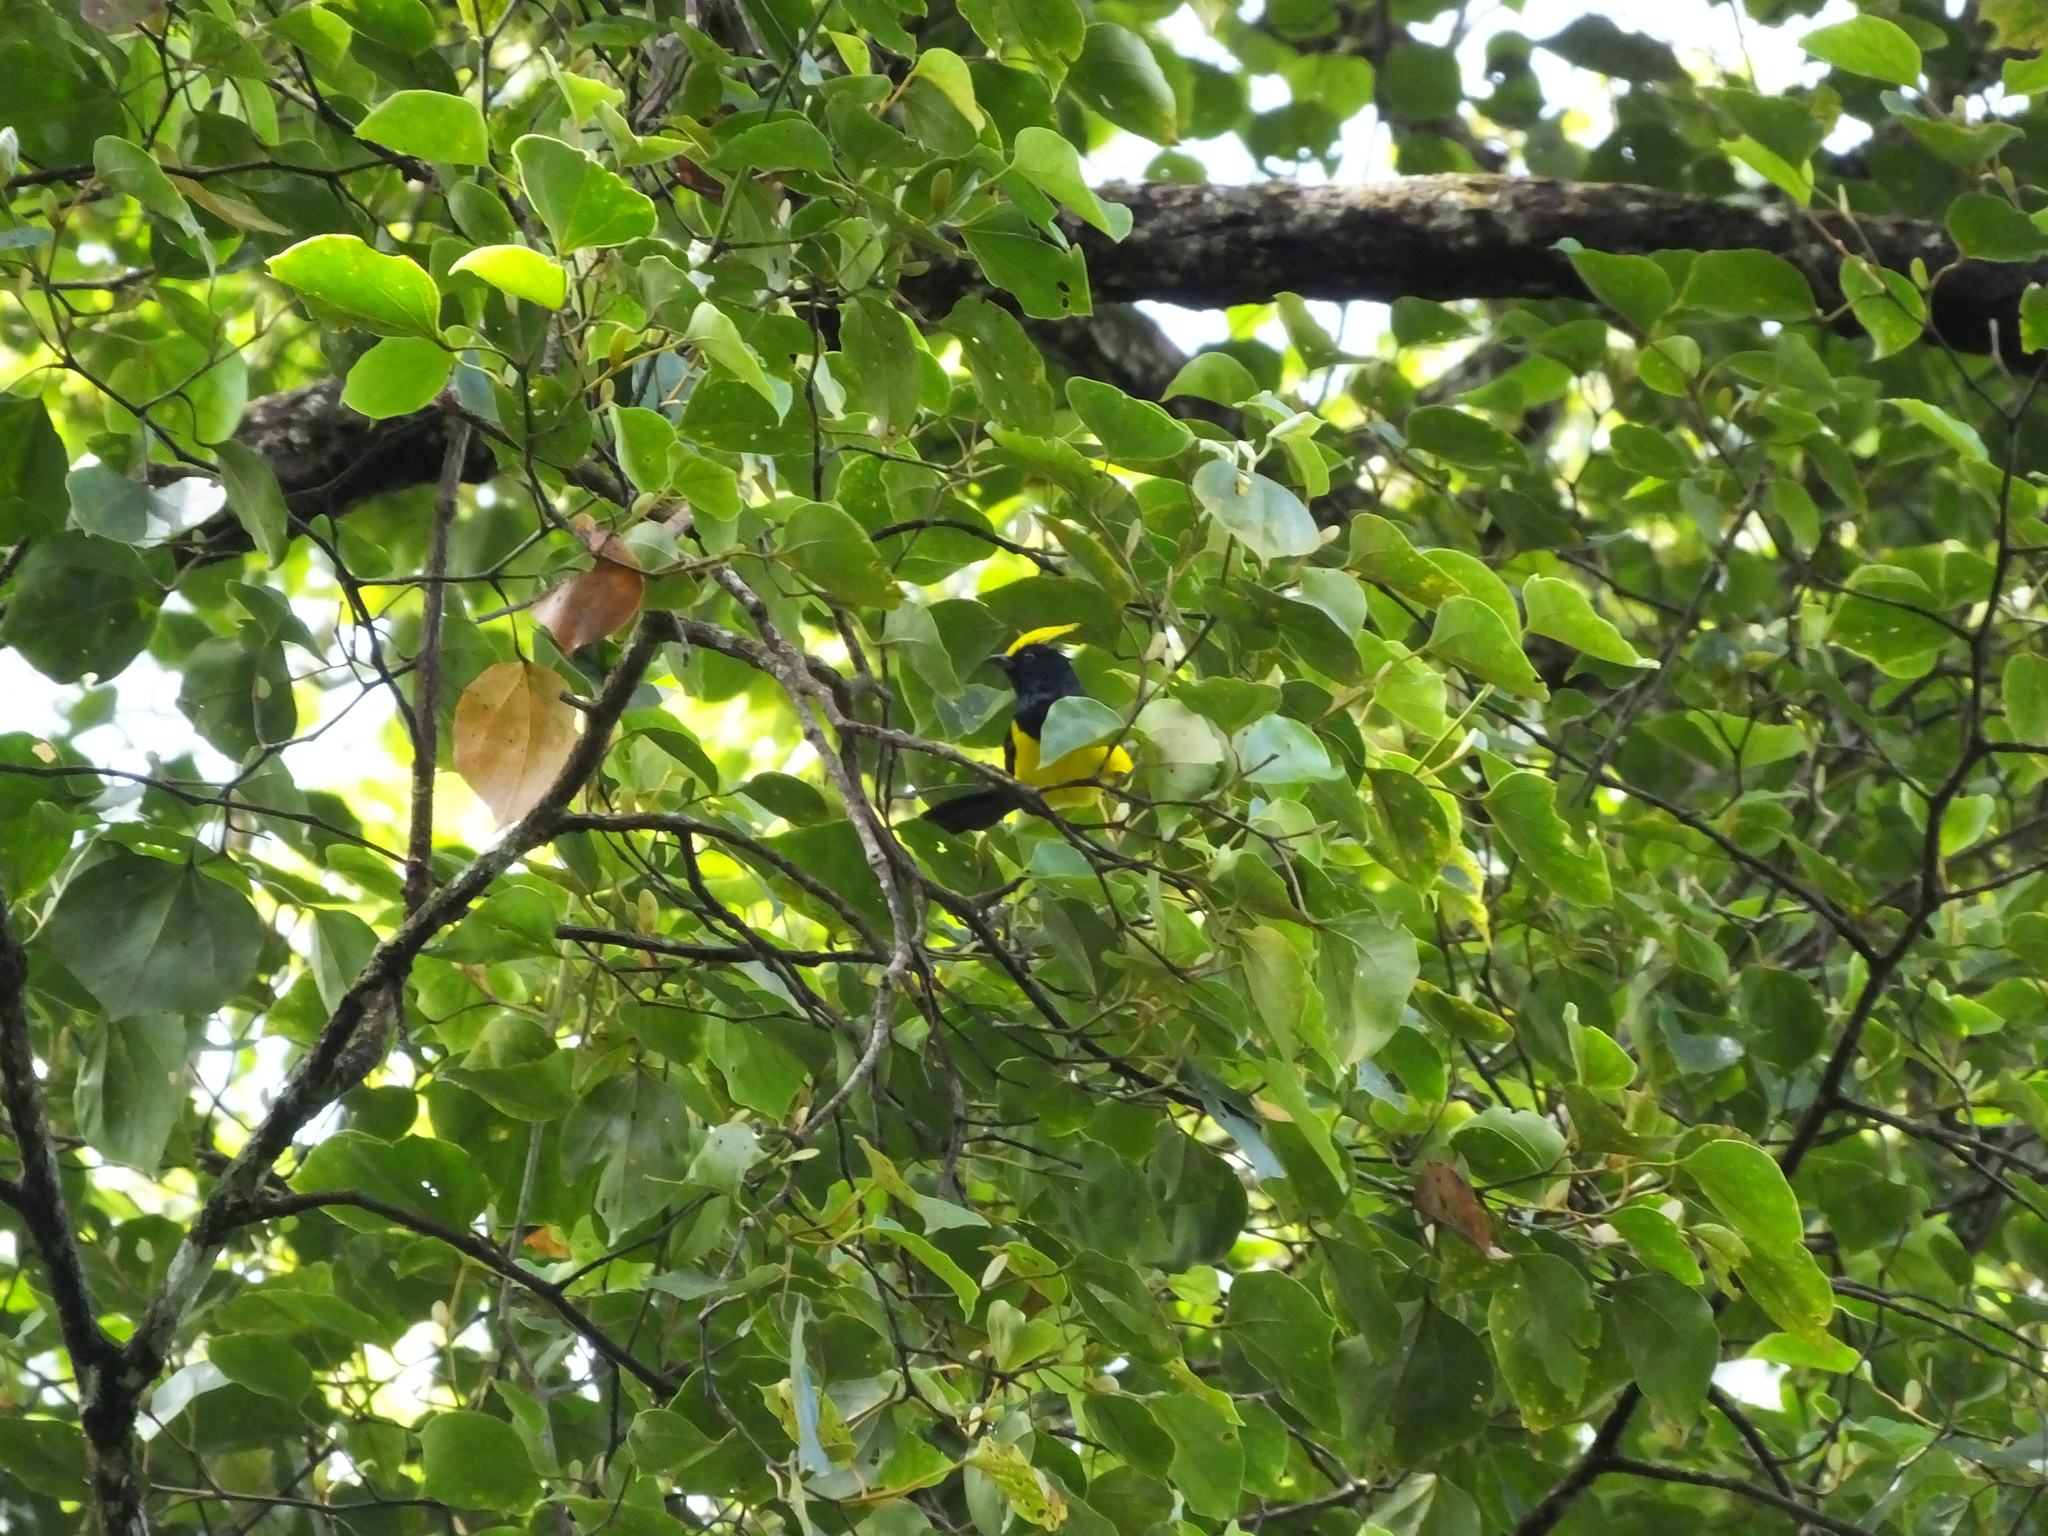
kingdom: Animalia
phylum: Chordata
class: Aves
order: Passeriformes
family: Paridae
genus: Melanochlora
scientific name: Melanochlora sultanea
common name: Sultan tit
